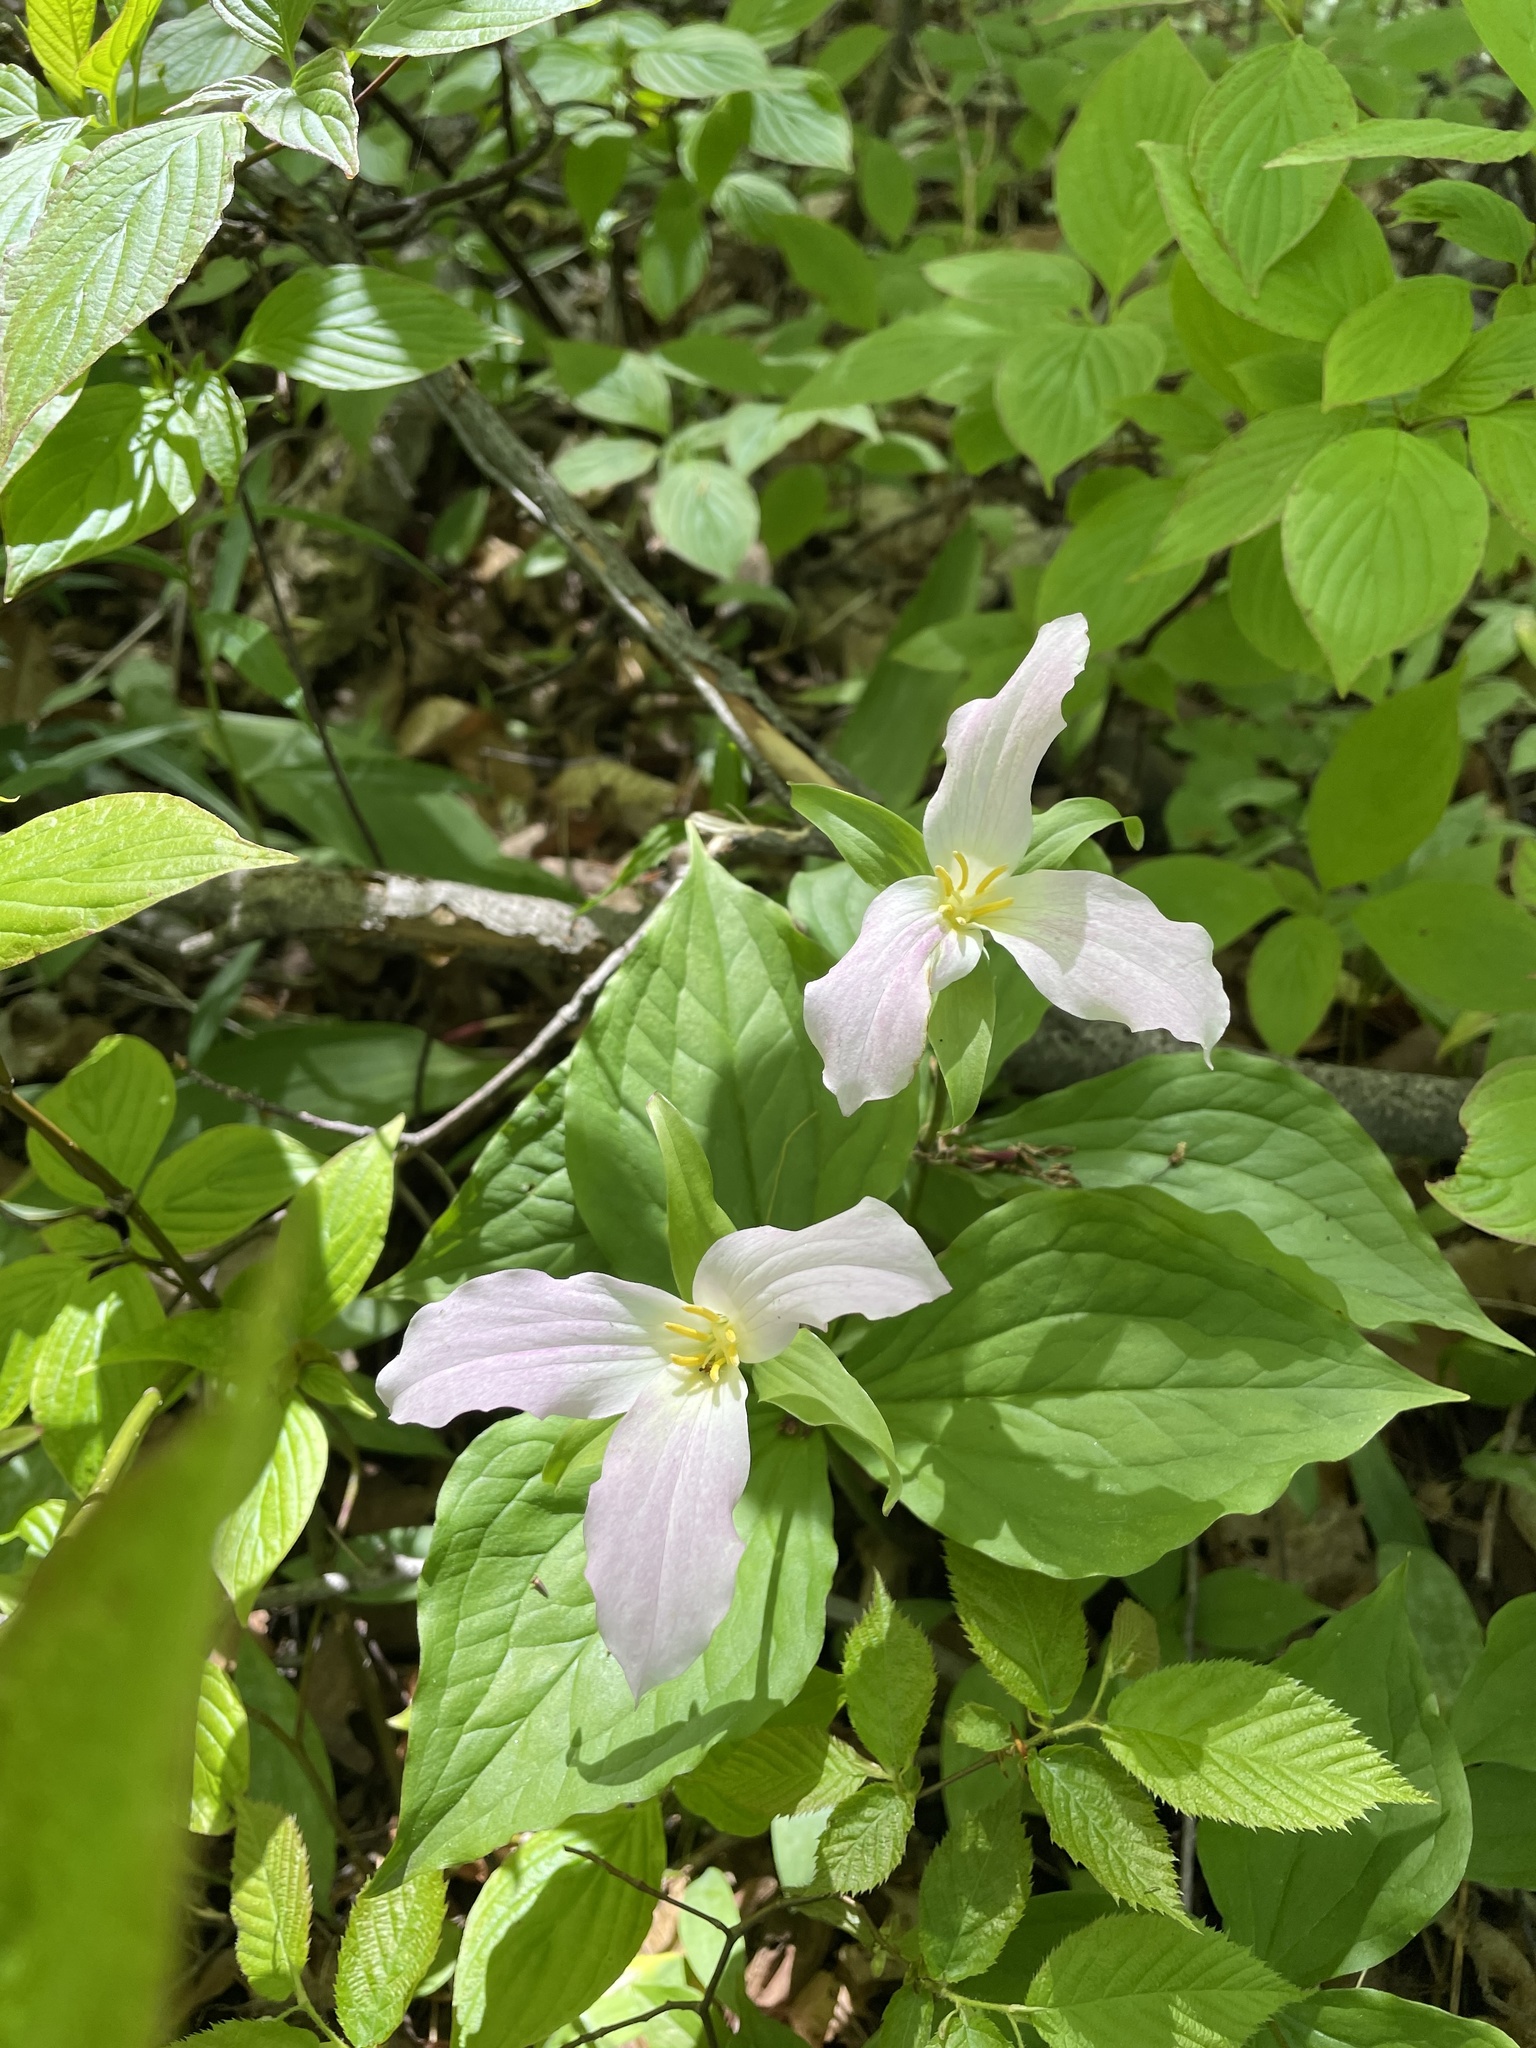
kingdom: Plantae
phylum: Tracheophyta
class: Liliopsida
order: Liliales
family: Melanthiaceae
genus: Trillium
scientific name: Trillium grandiflorum
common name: Great white trillium
